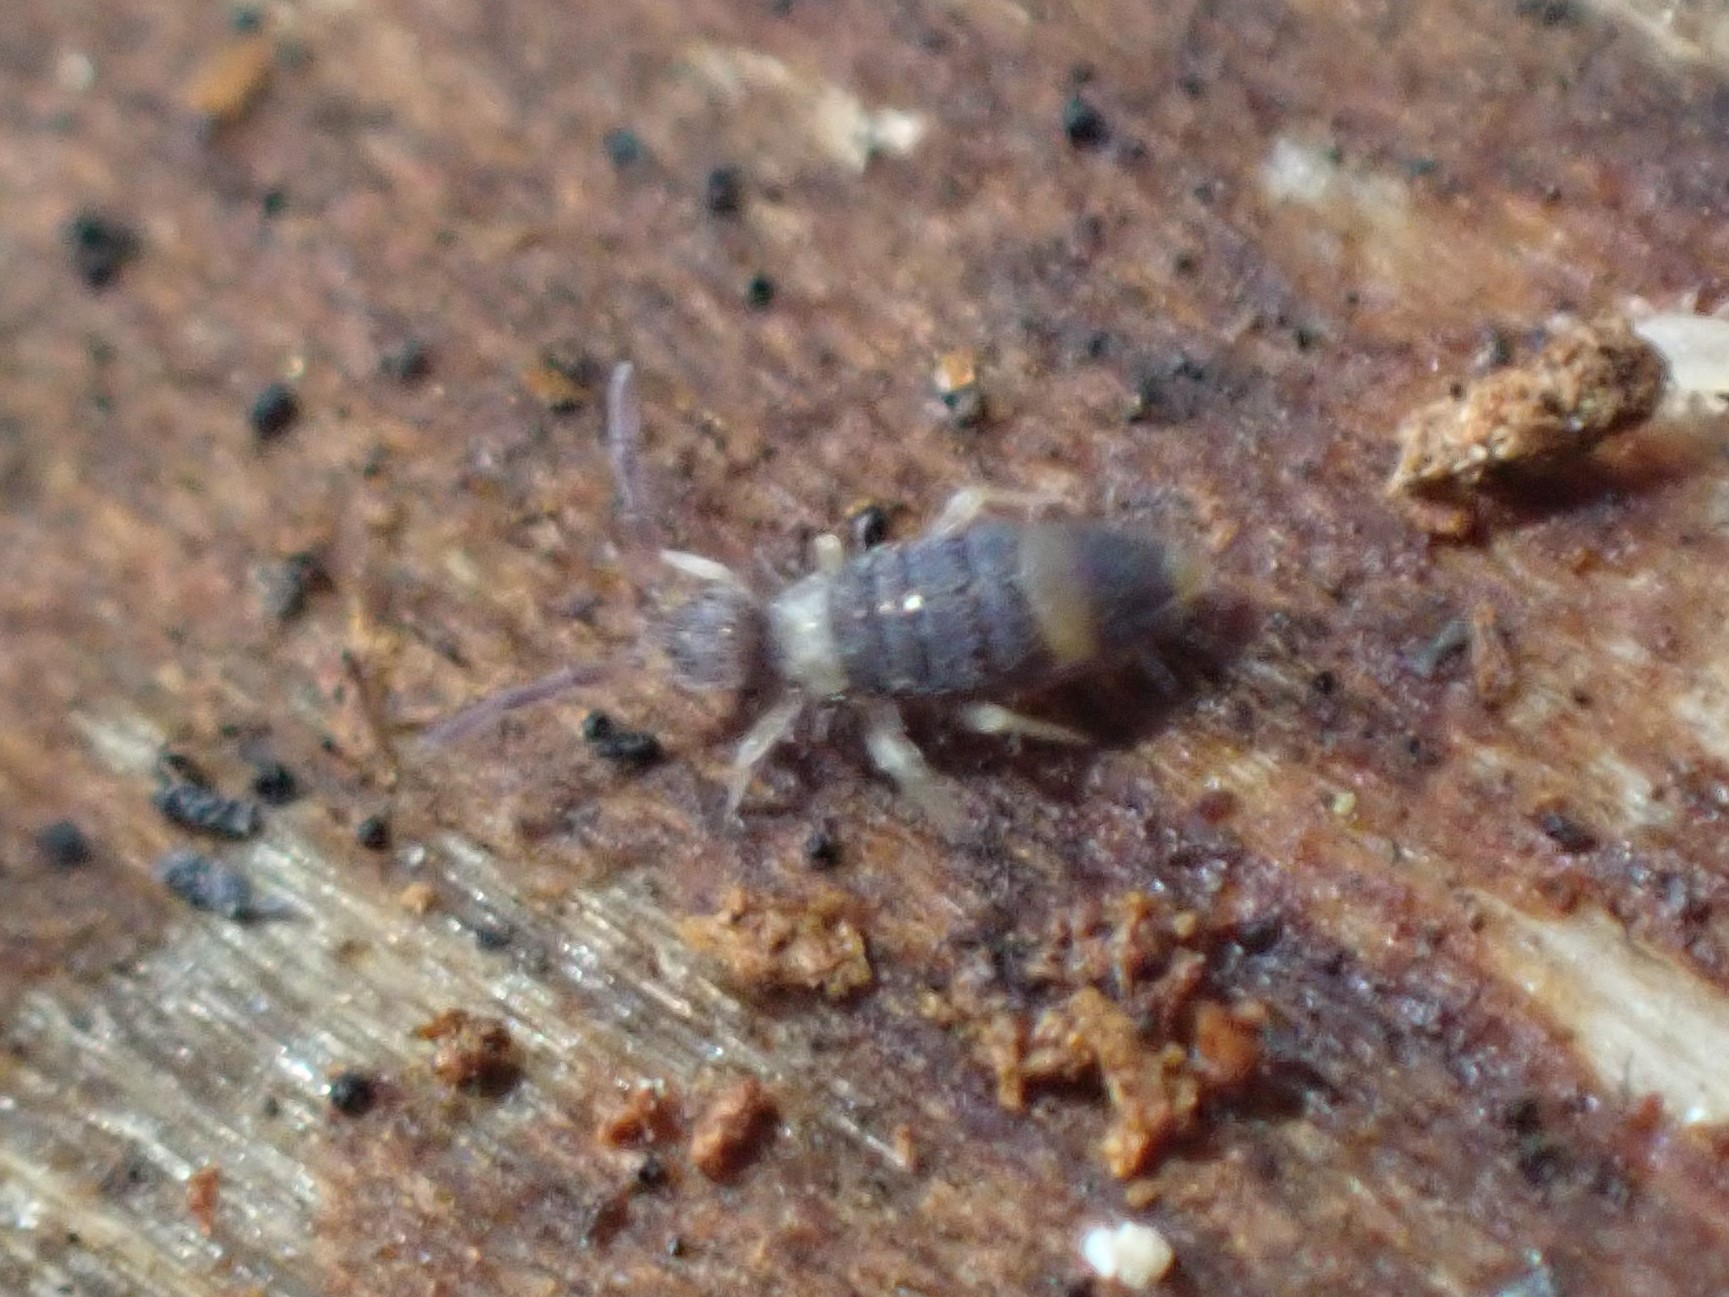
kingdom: Animalia
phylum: Arthropoda
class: Collembola
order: Entomobryomorpha
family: Entomobryidae
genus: Entomobrya
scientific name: Entomobrya albocincta
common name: Springtail
